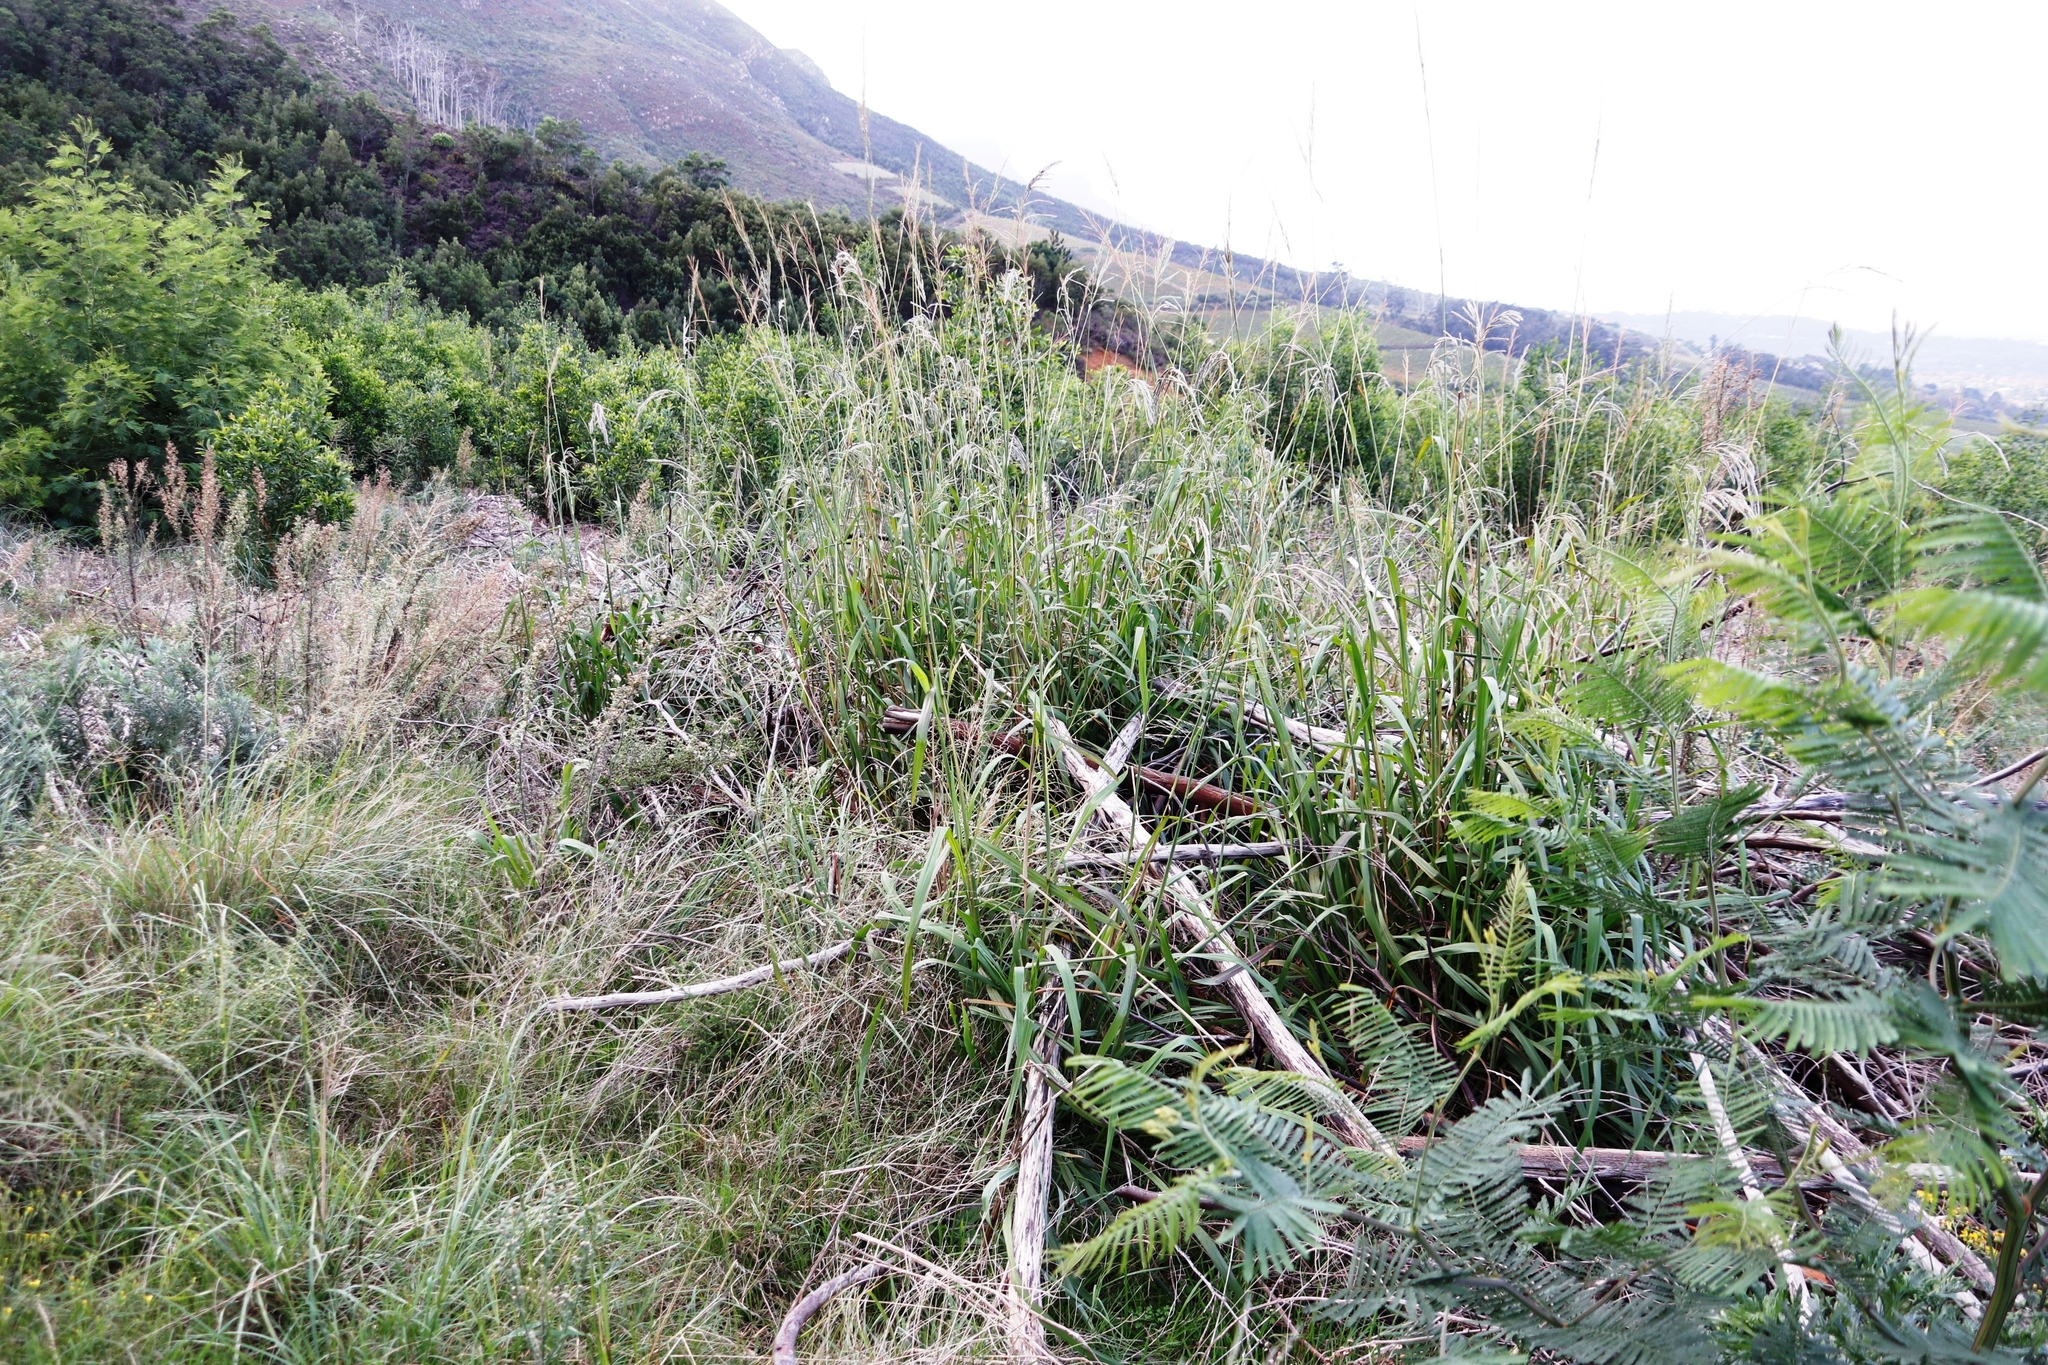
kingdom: Plantae
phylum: Tracheophyta
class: Liliopsida
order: Poales
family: Poaceae
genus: Paspalum
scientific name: Paspalum urvillei
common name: Vasey's grass
